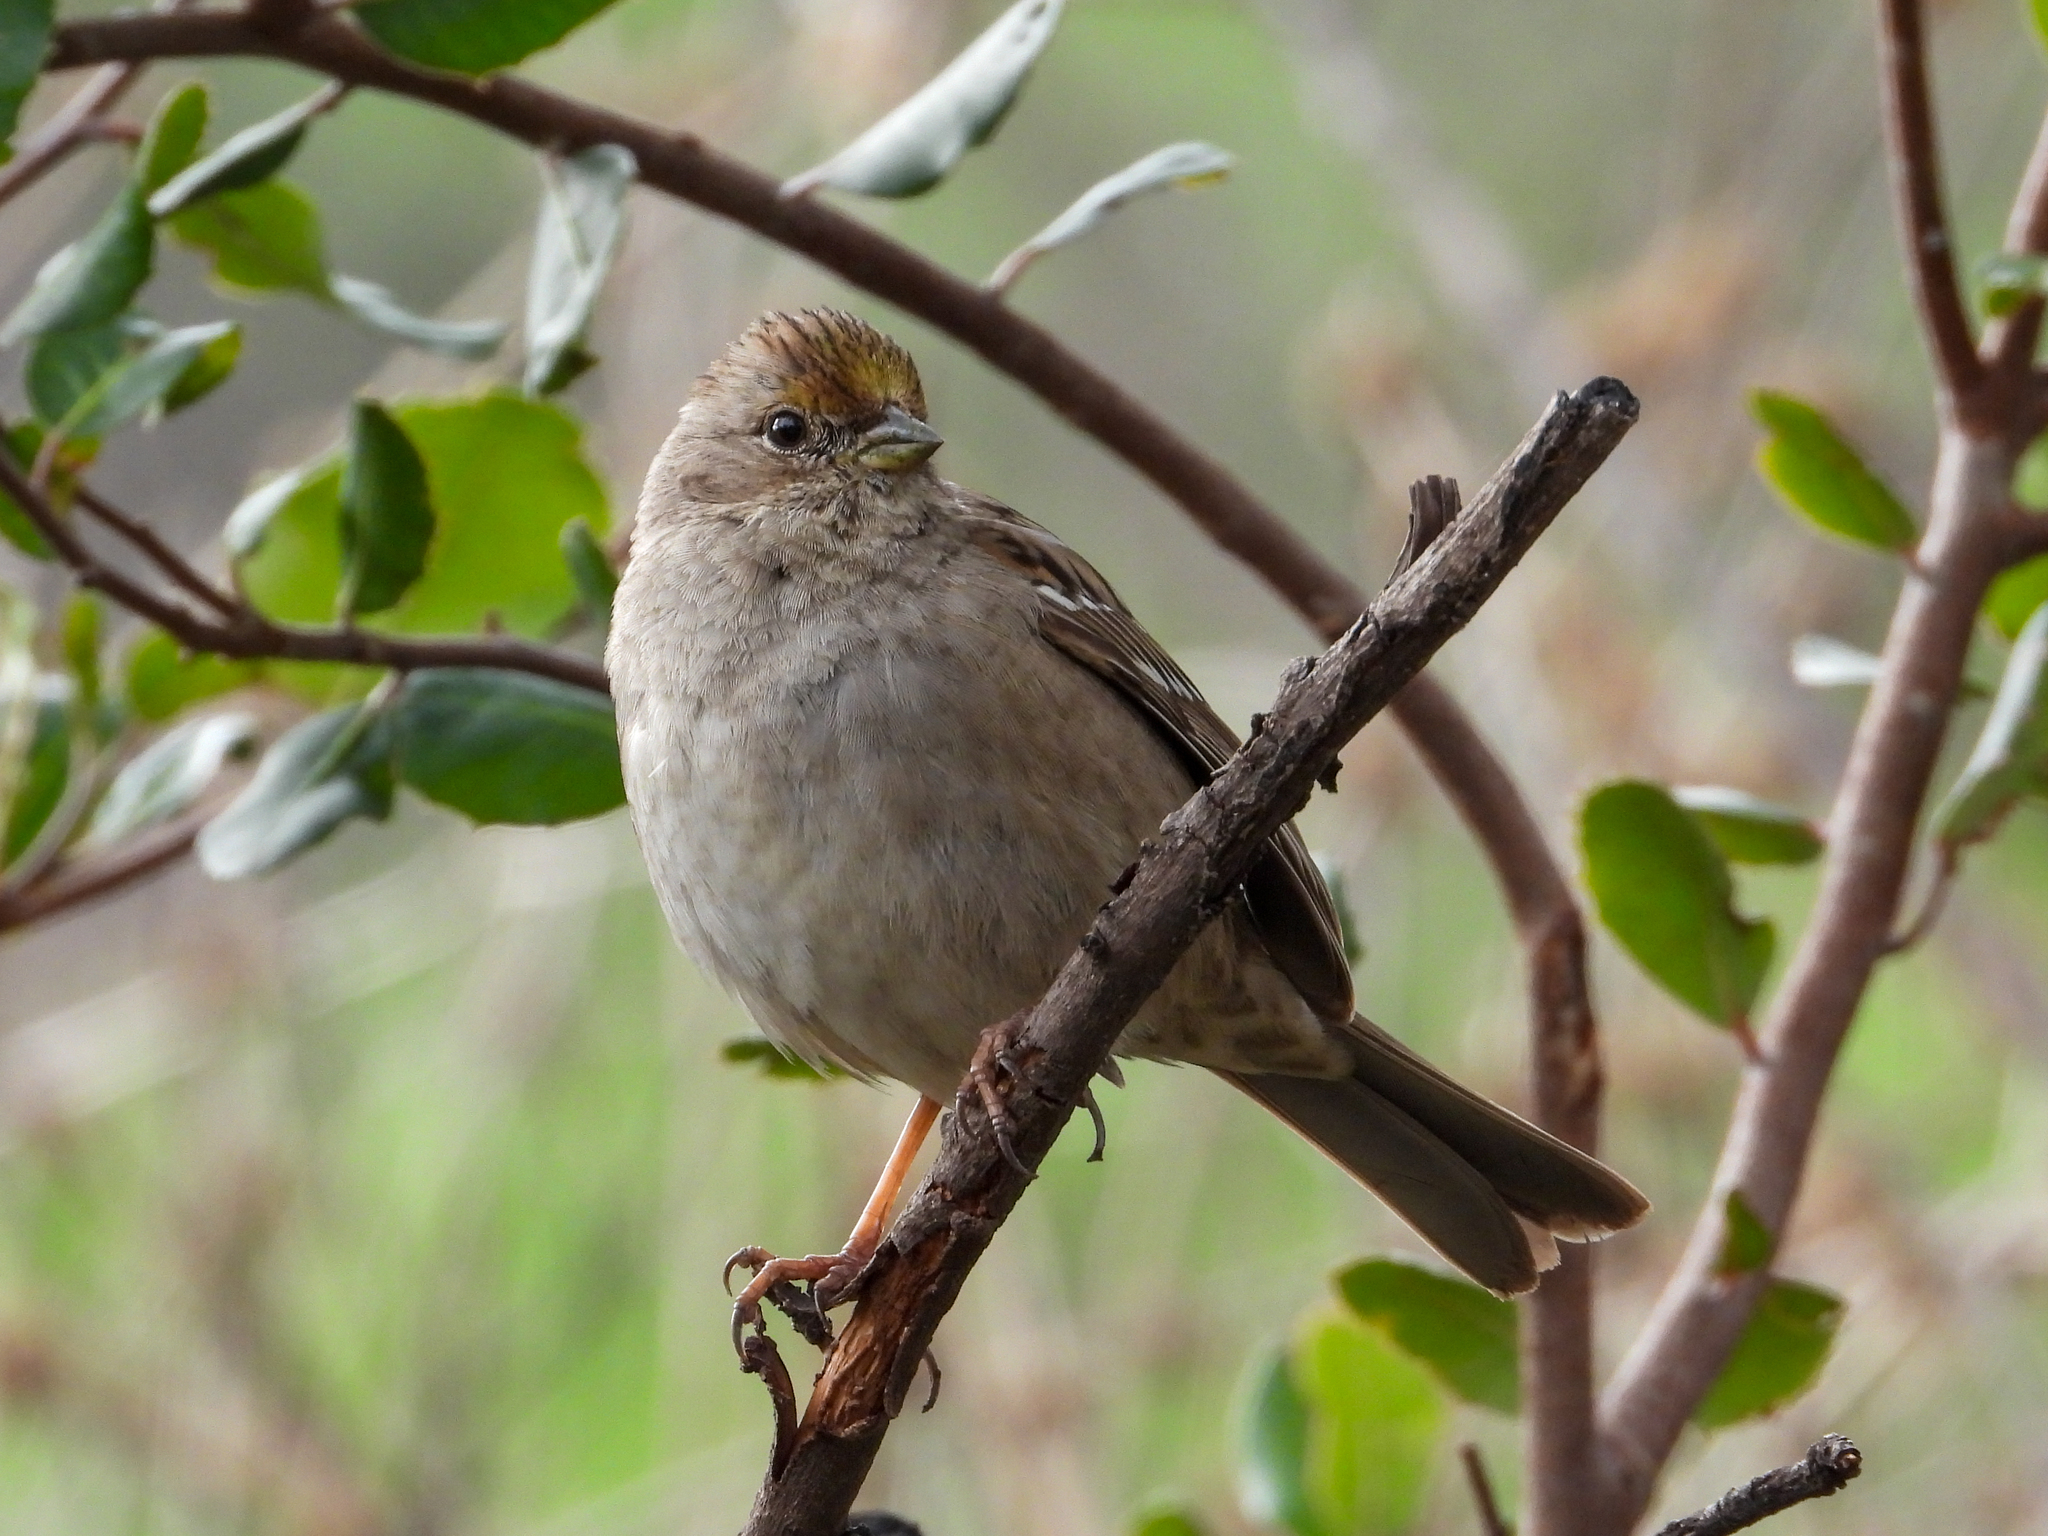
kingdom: Animalia
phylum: Chordata
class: Aves
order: Passeriformes
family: Passerellidae
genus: Zonotrichia
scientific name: Zonotrichia atricapilla
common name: Golden-crowned sparrow
